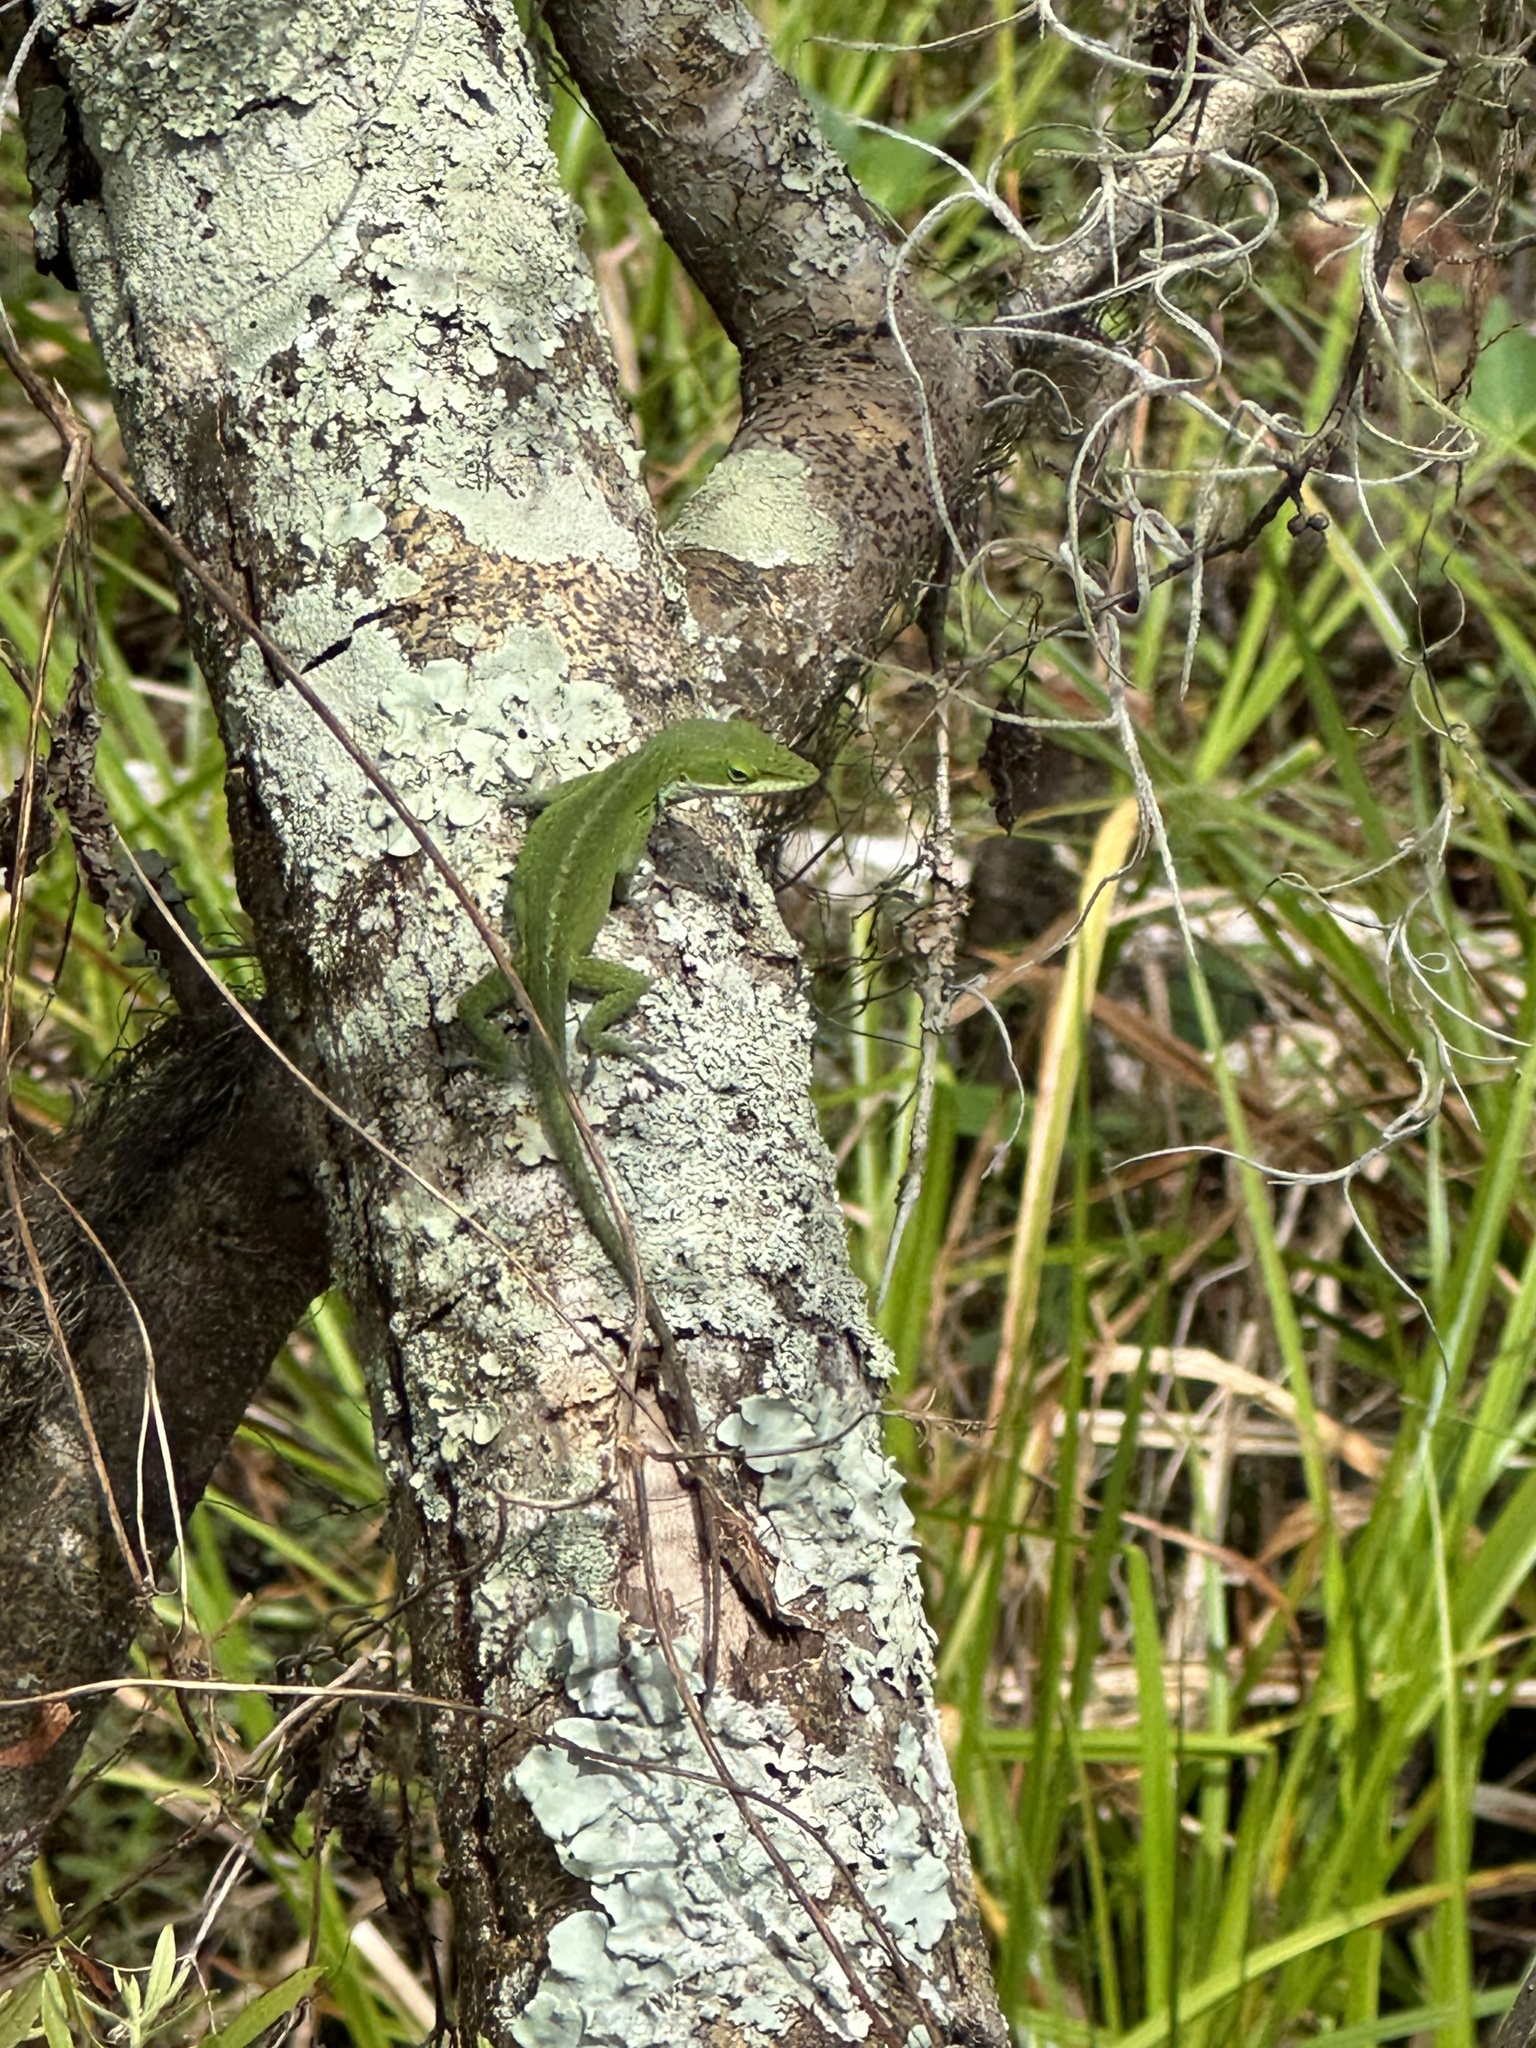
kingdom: Animalia
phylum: Chordata
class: Squamata
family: Dactyloidae
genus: Anolis
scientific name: Anolis carolinensis
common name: Green anole
